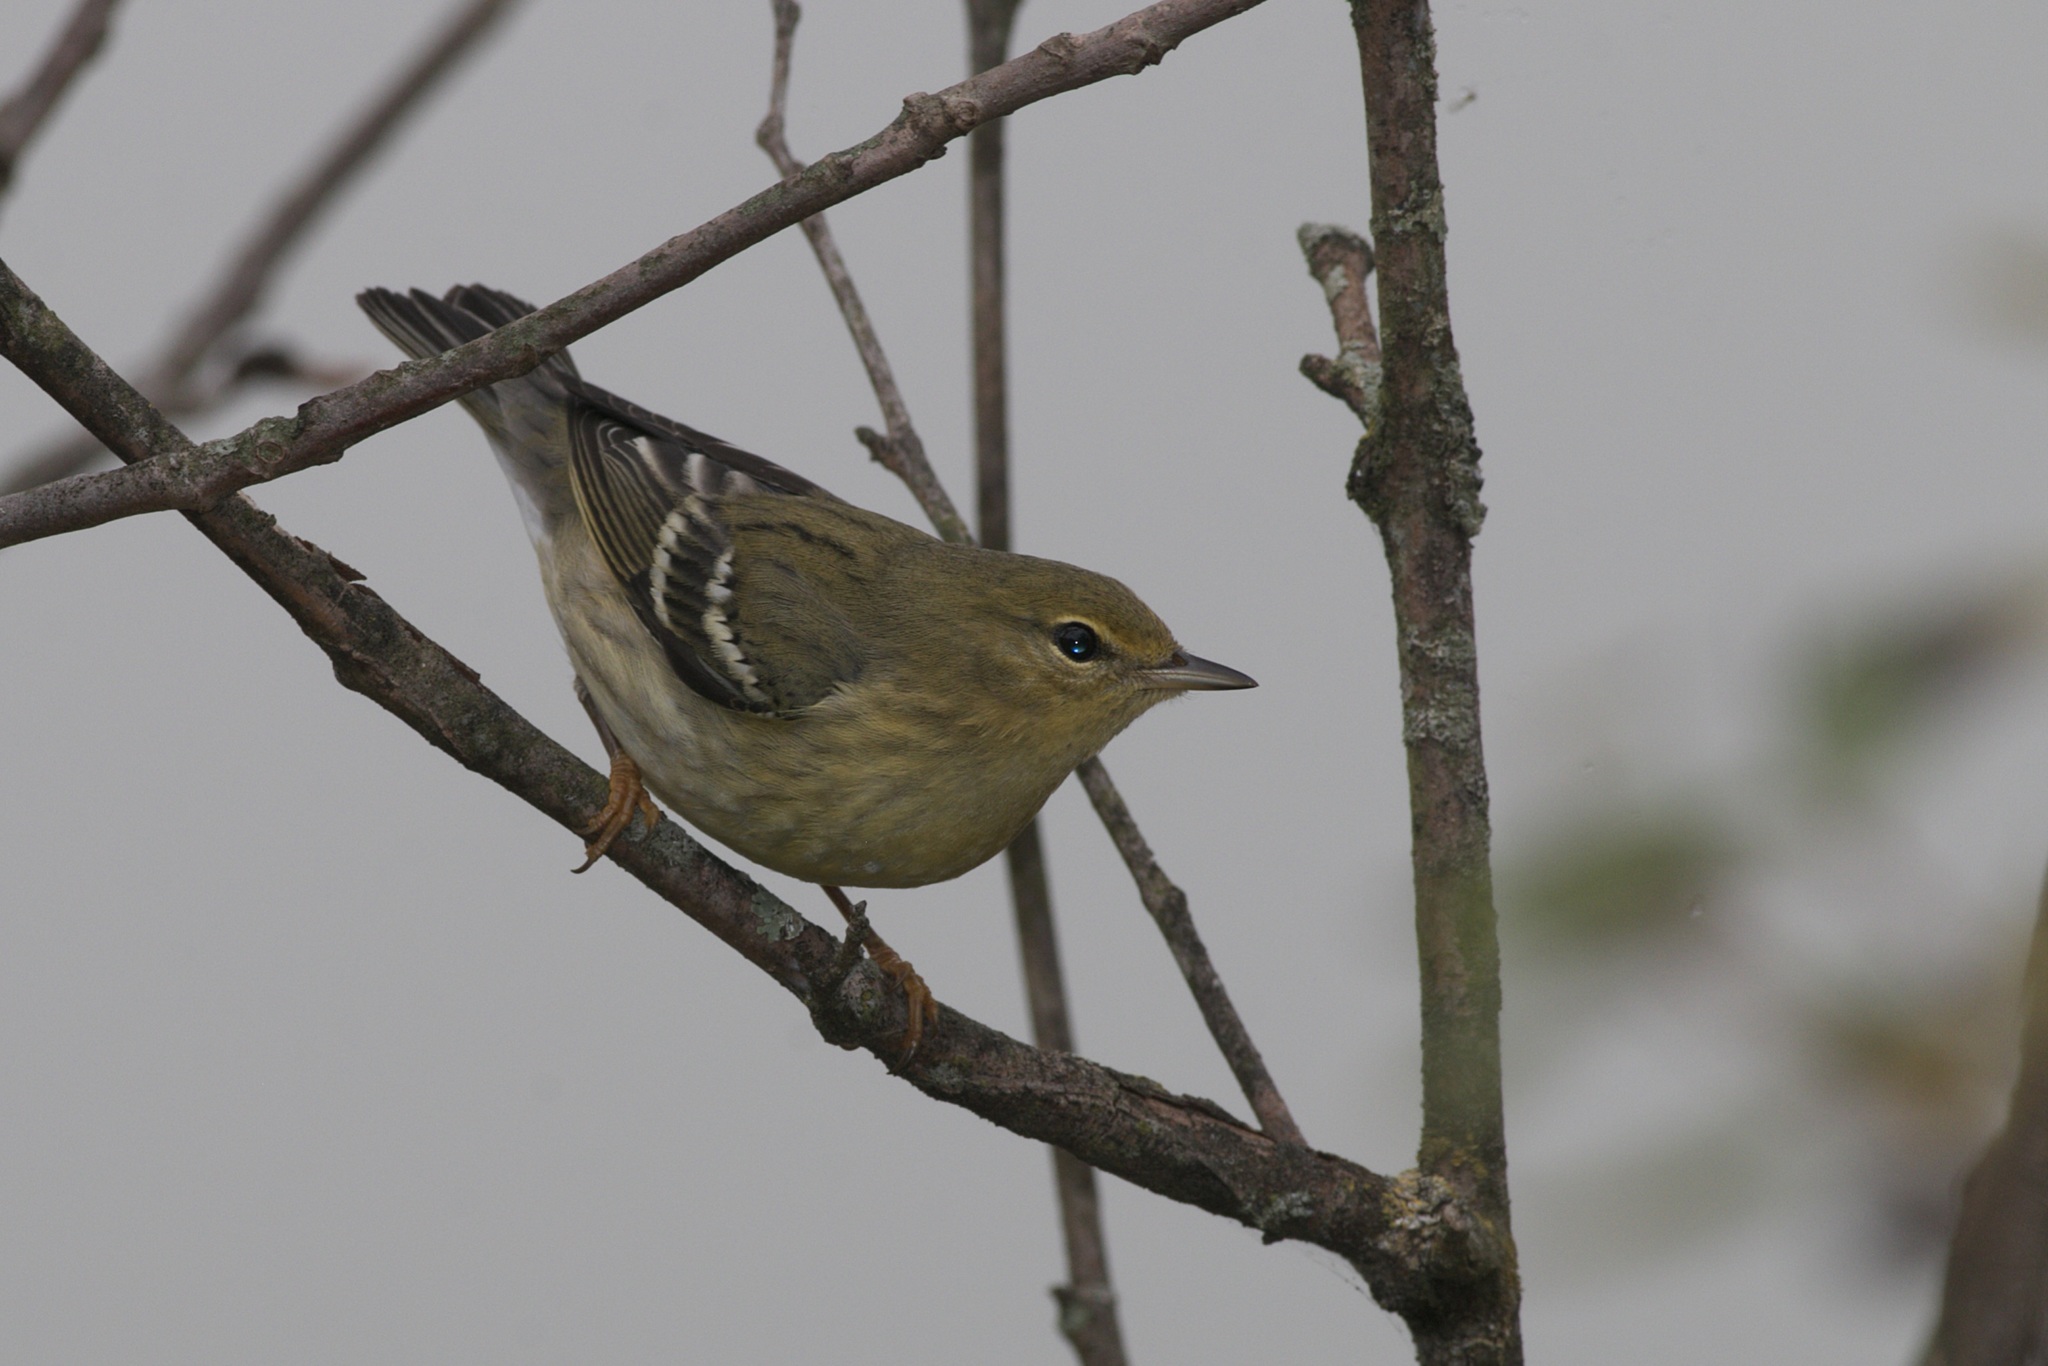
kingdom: Animalia
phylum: Chordata
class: Aves
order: Passeriformes
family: Parulidae
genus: Setophaga
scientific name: Setophaga striata
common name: Blackpoll warbler
